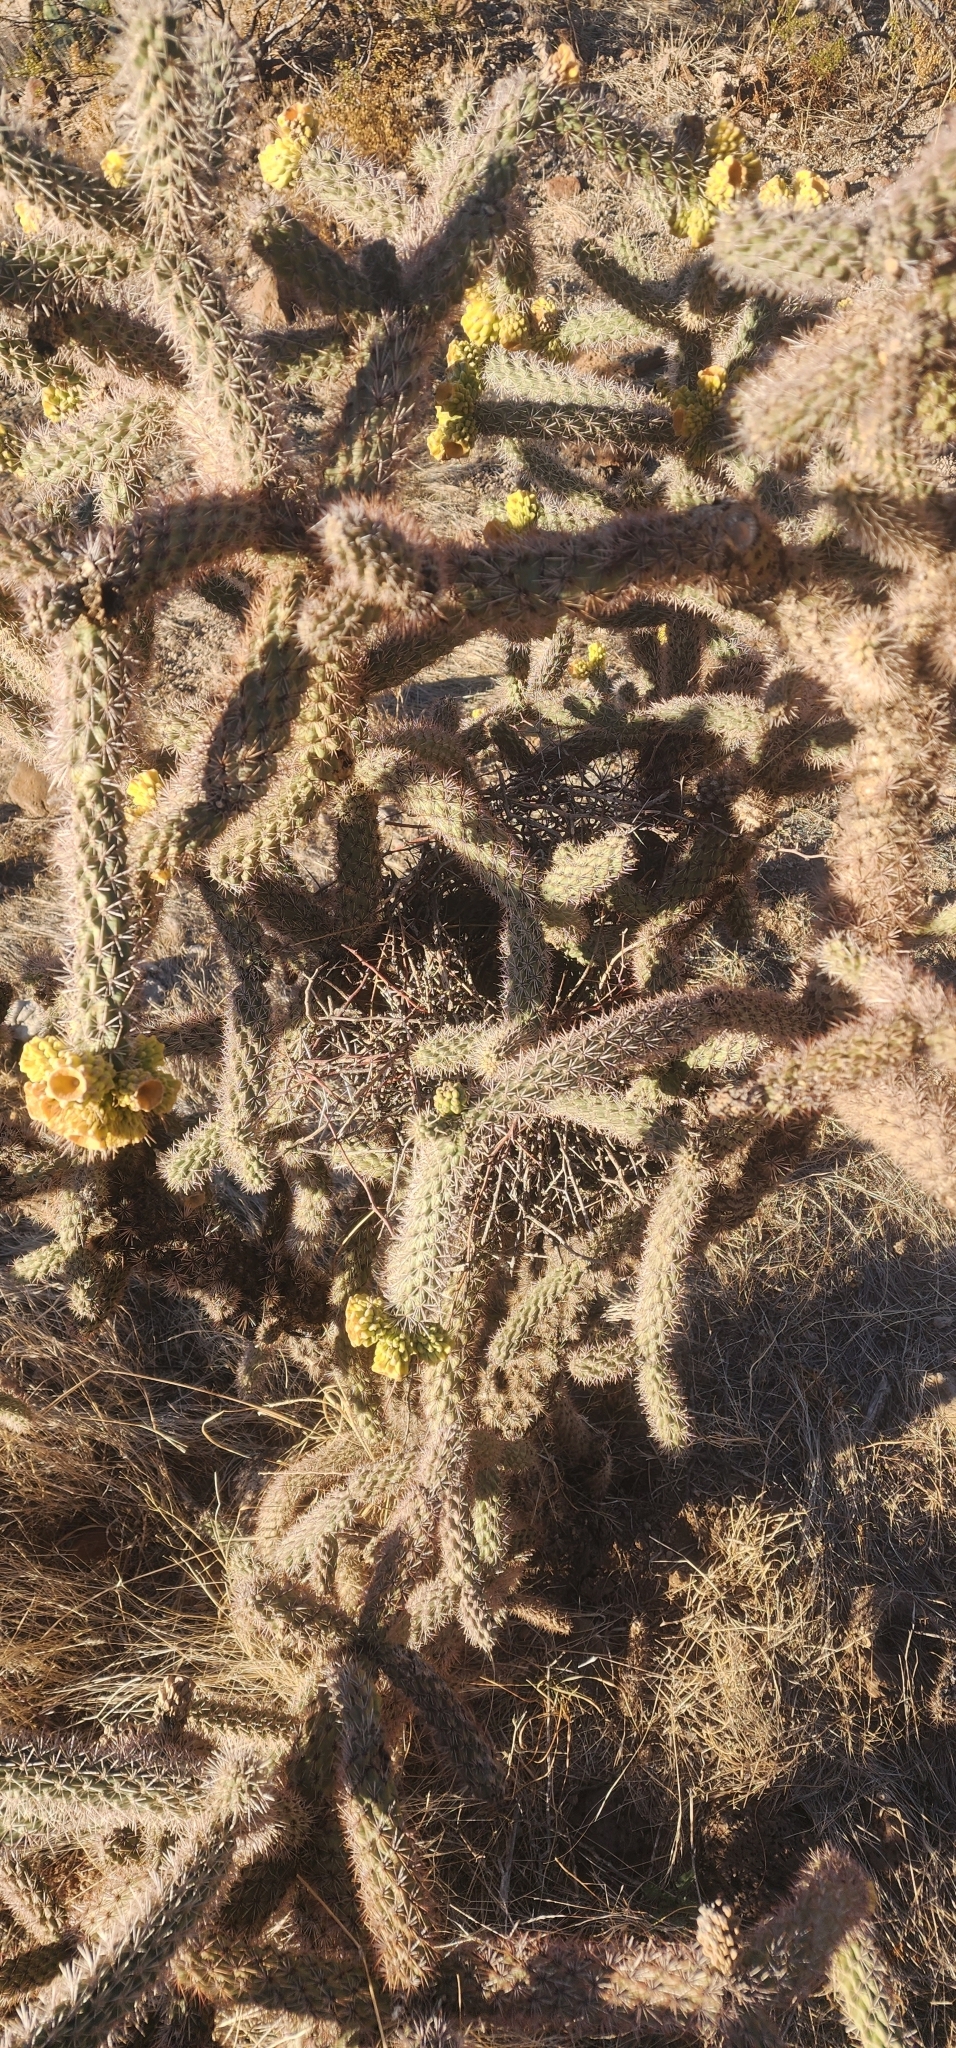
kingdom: Plantae
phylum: Tracheophyta
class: Magnoliopsida
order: Caryophyllales
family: Cactaceae
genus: Cylindropuntia
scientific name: Cylindropuntia imbricata
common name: Candelabrum cactus
